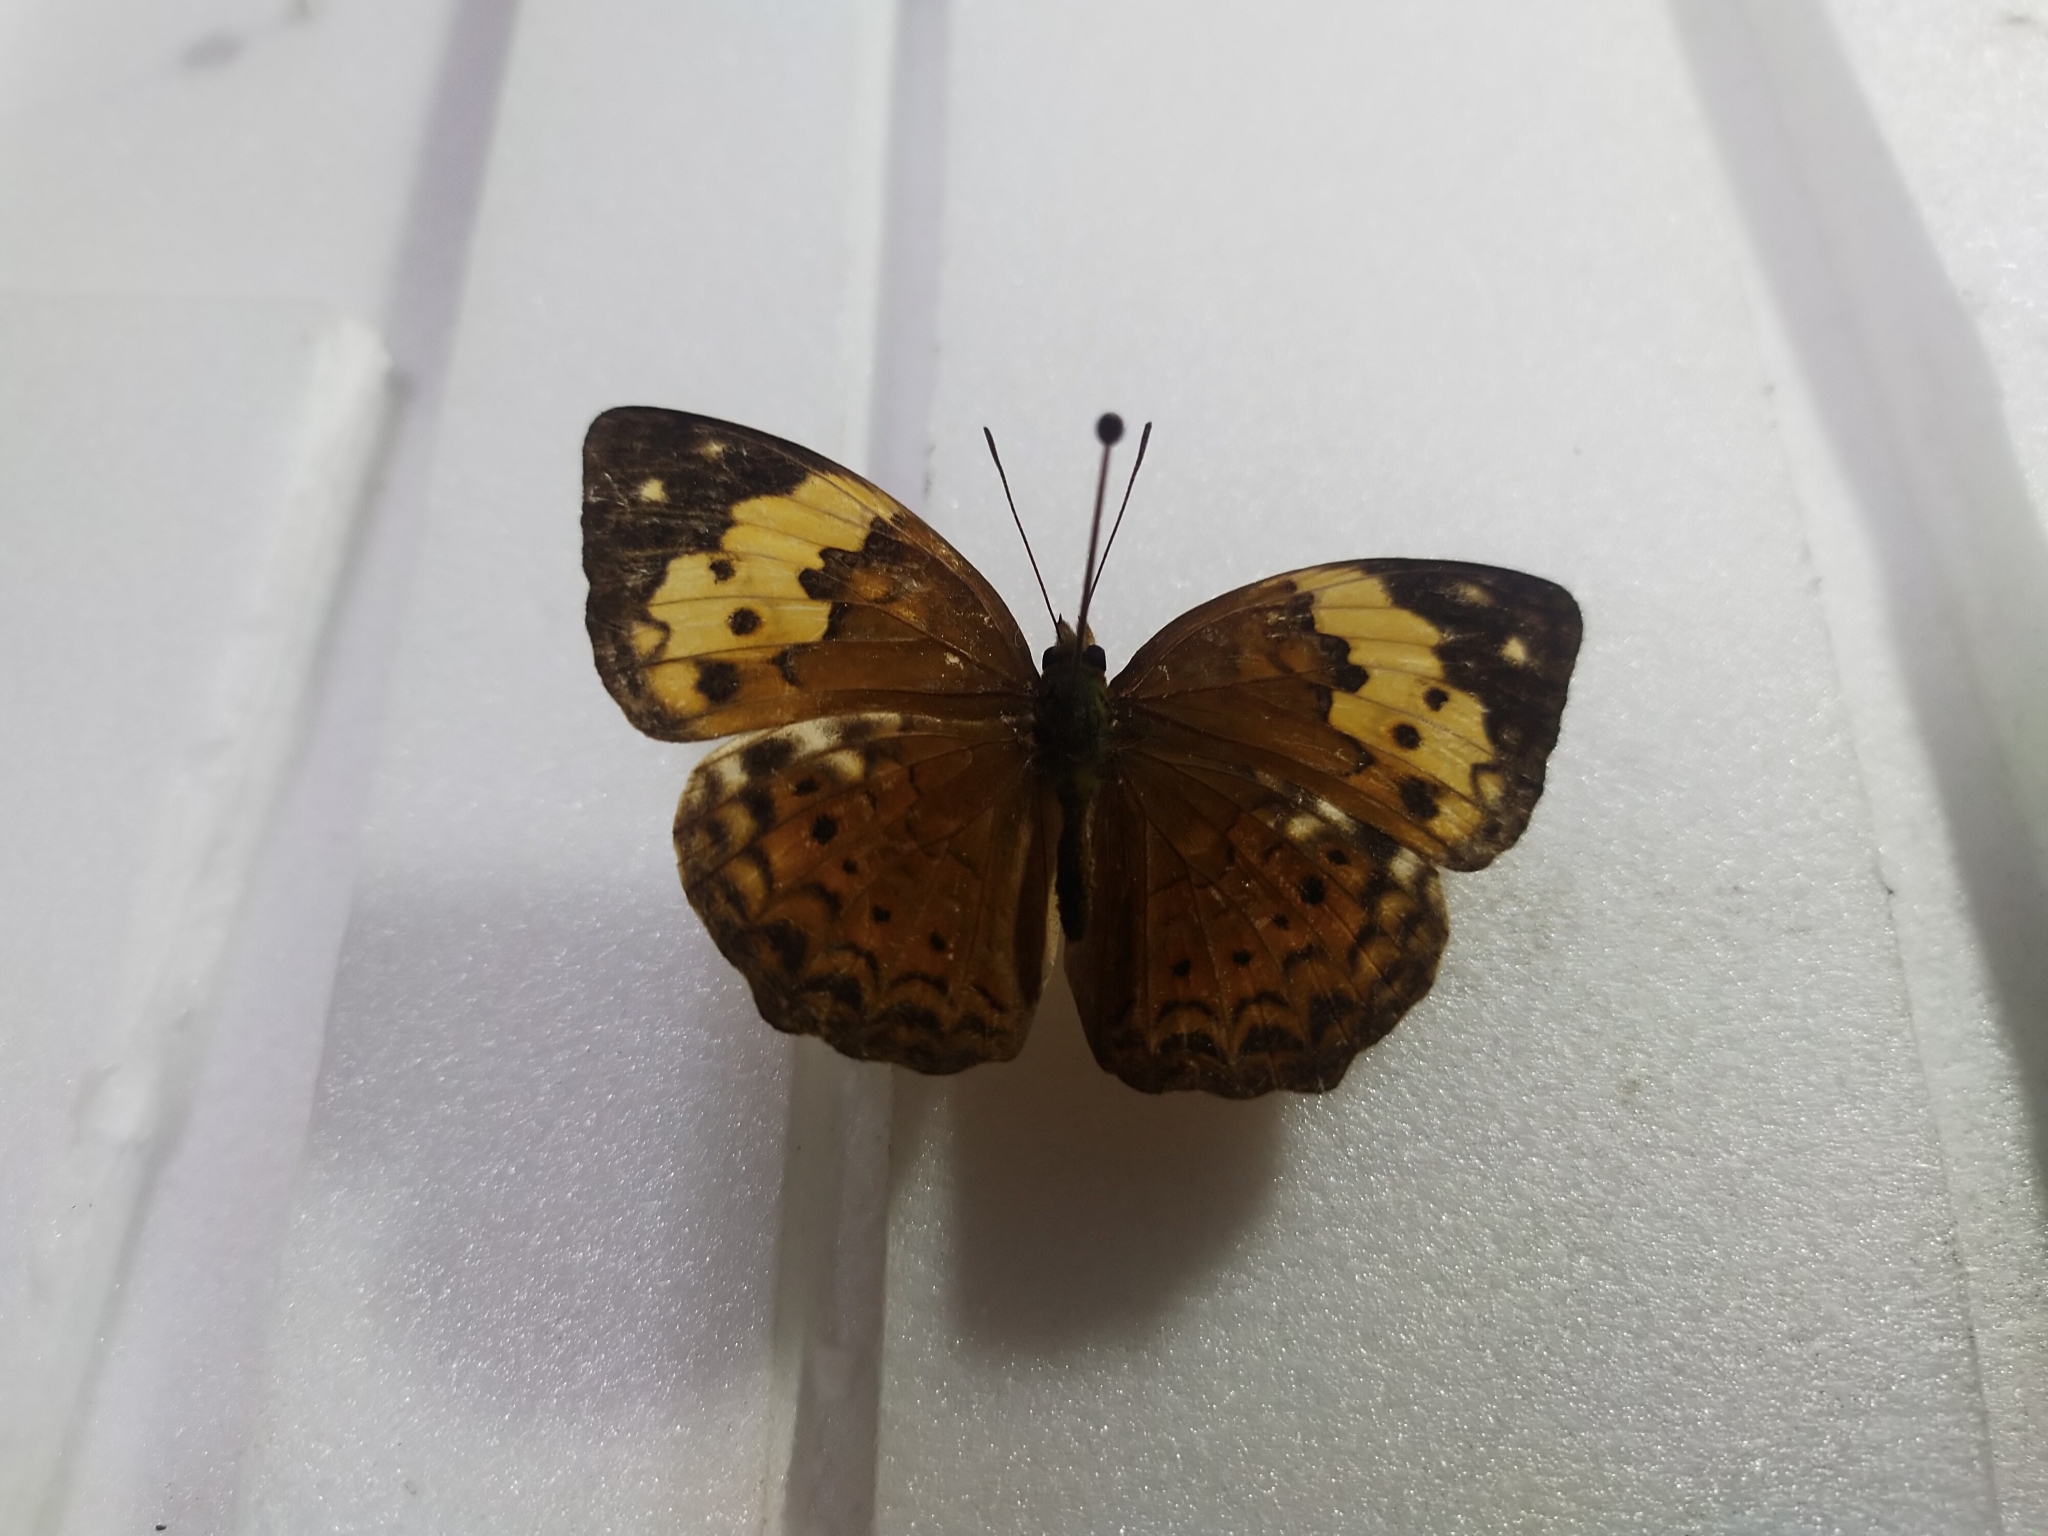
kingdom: Animalia
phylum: Arthropoda
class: Insecta
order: Lepidoptera
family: Nymphalidae
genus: Cupha
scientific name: Cupha erymanthis
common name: Rustic
